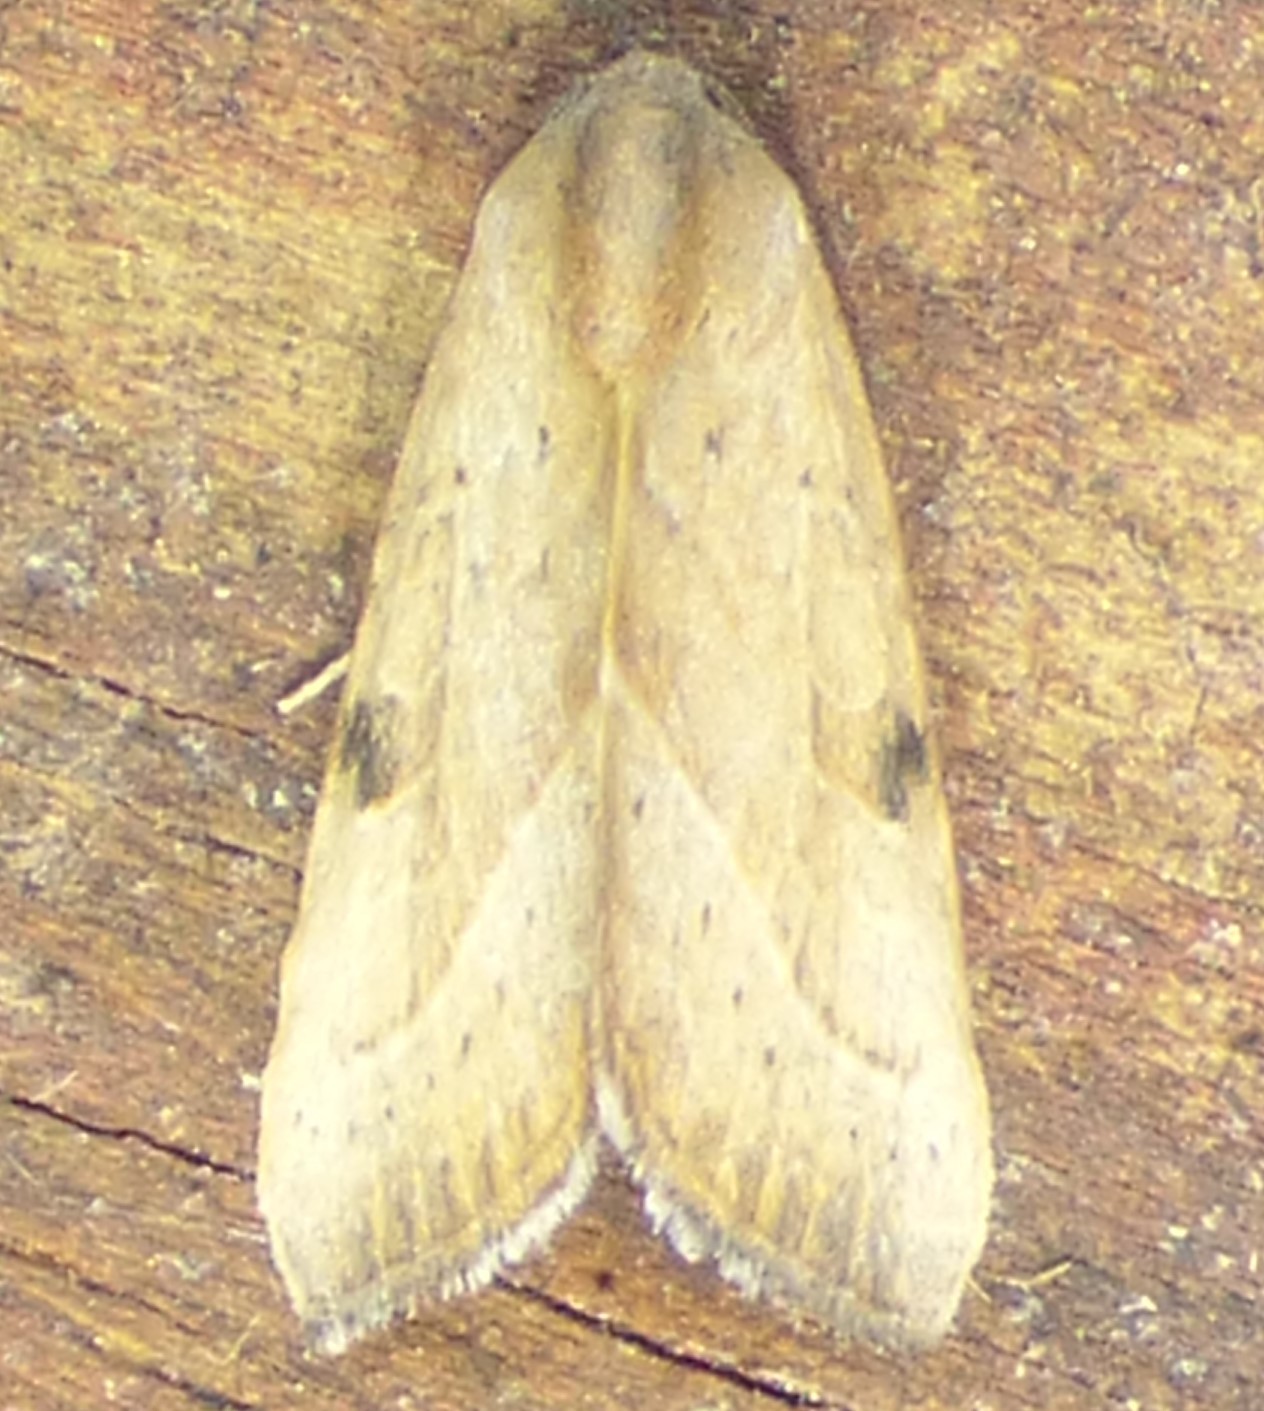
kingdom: Animalia
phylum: Arthropoda
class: Insecta
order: Lepidoptera
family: Noctuidae
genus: Galgula
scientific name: Galgula partita
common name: Wedgeling
